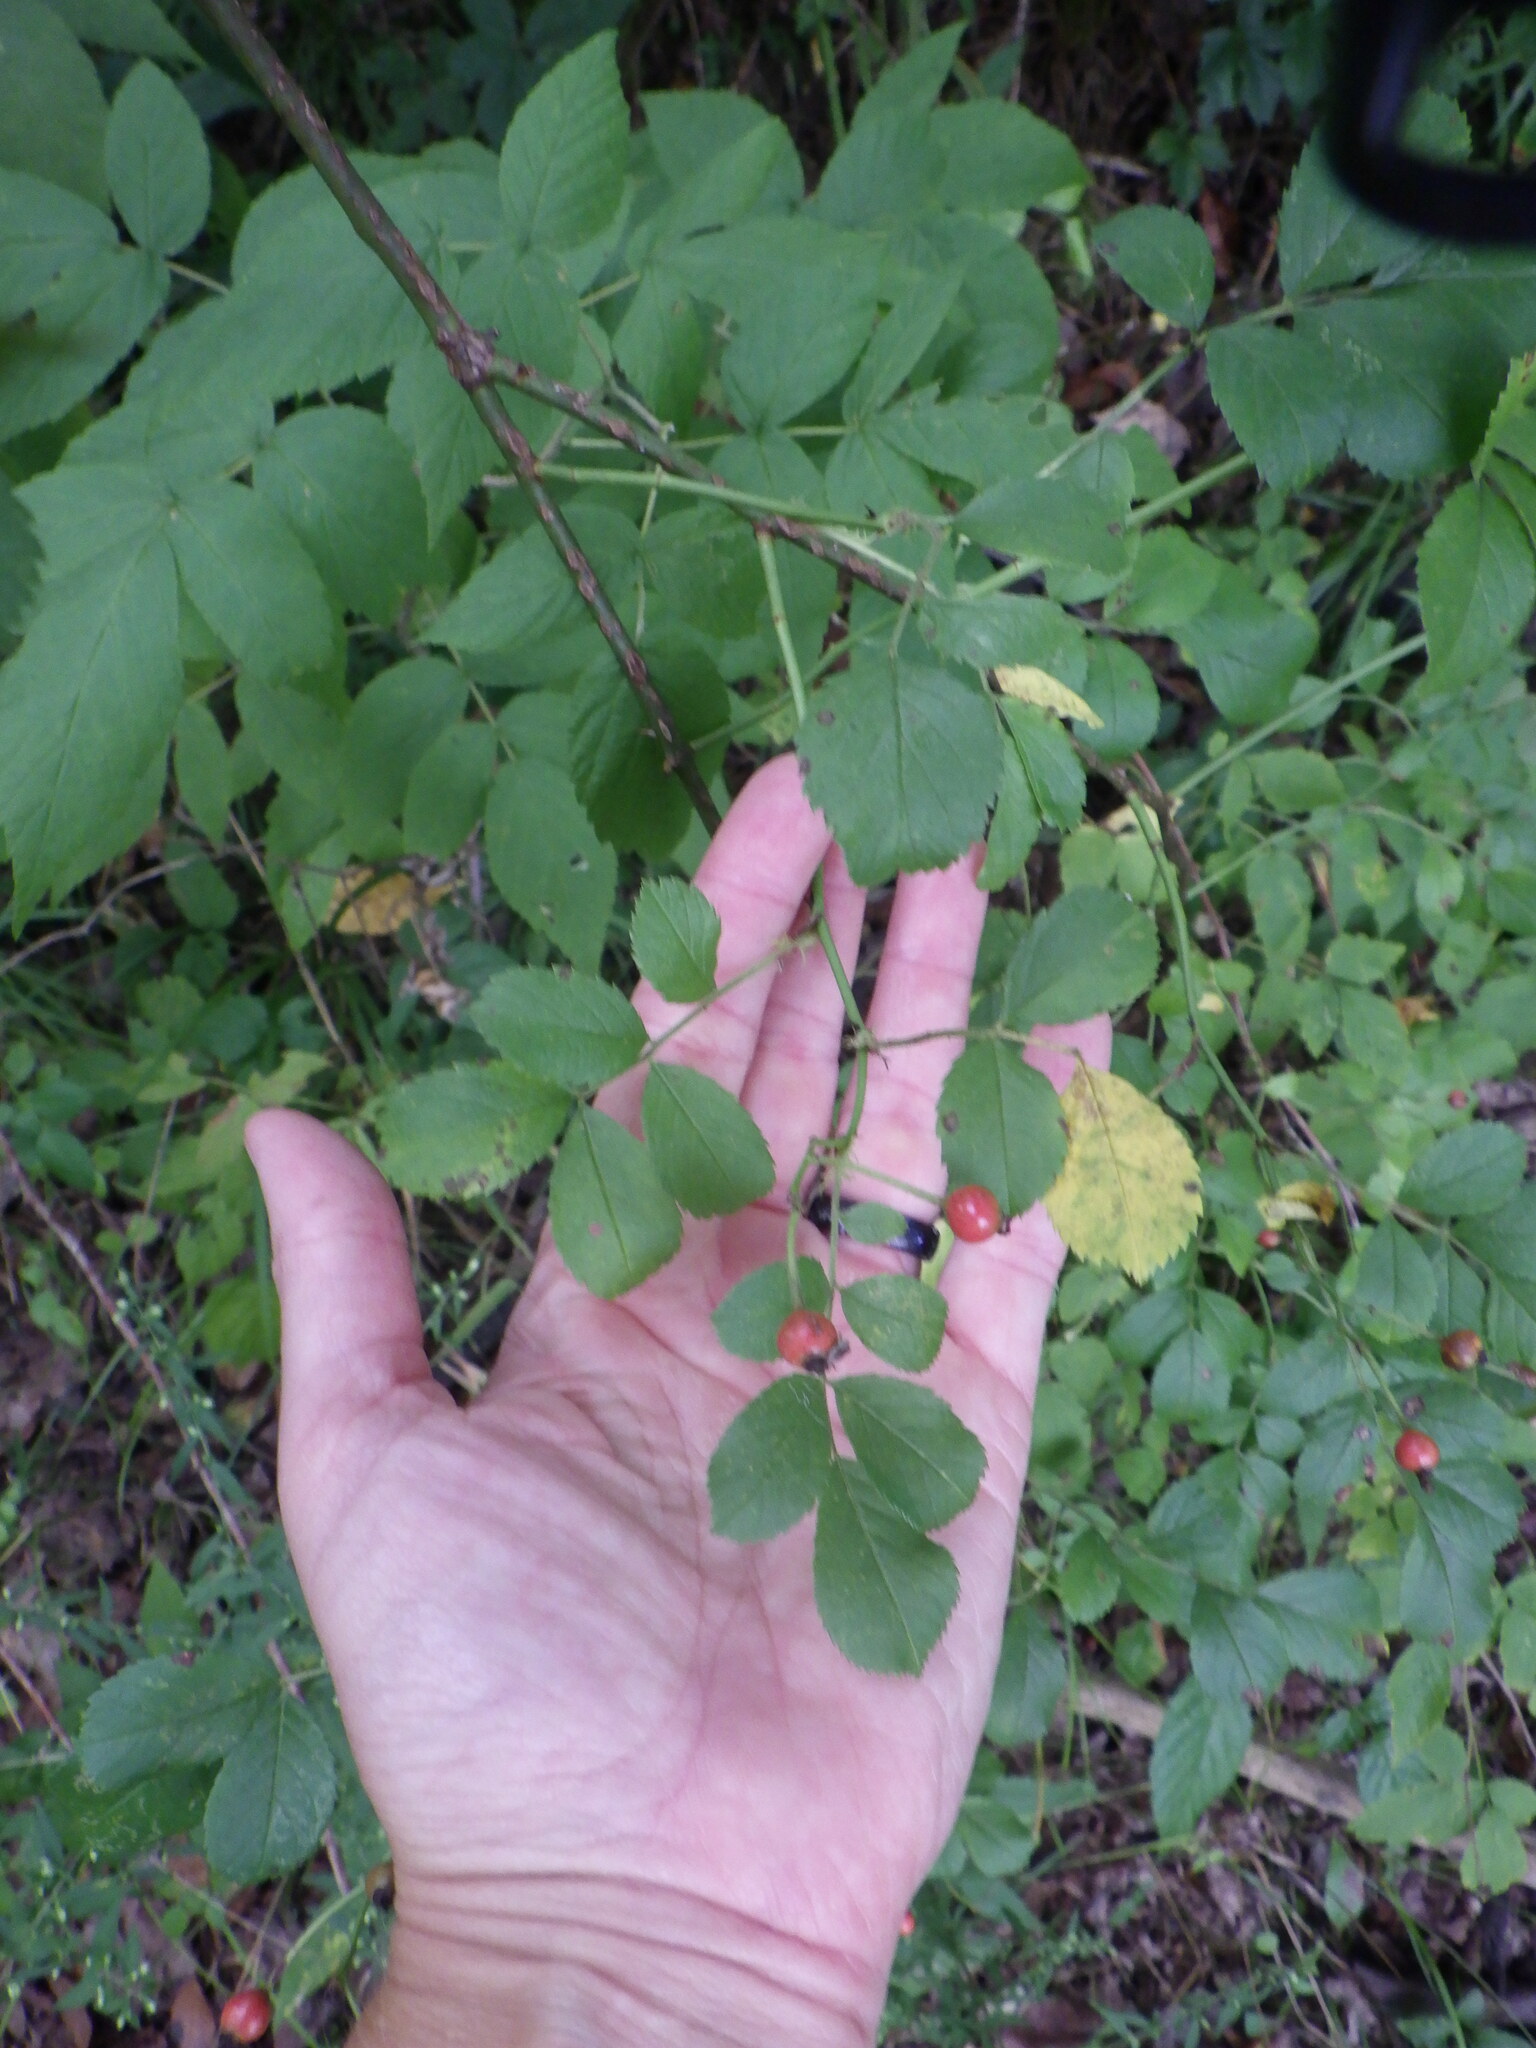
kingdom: Plantae
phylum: Tracheophyta
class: Magnoliopsida
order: Rosales
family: Rosaceae
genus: Rosa
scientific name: Rosa multiflora
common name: Multiflora rose
